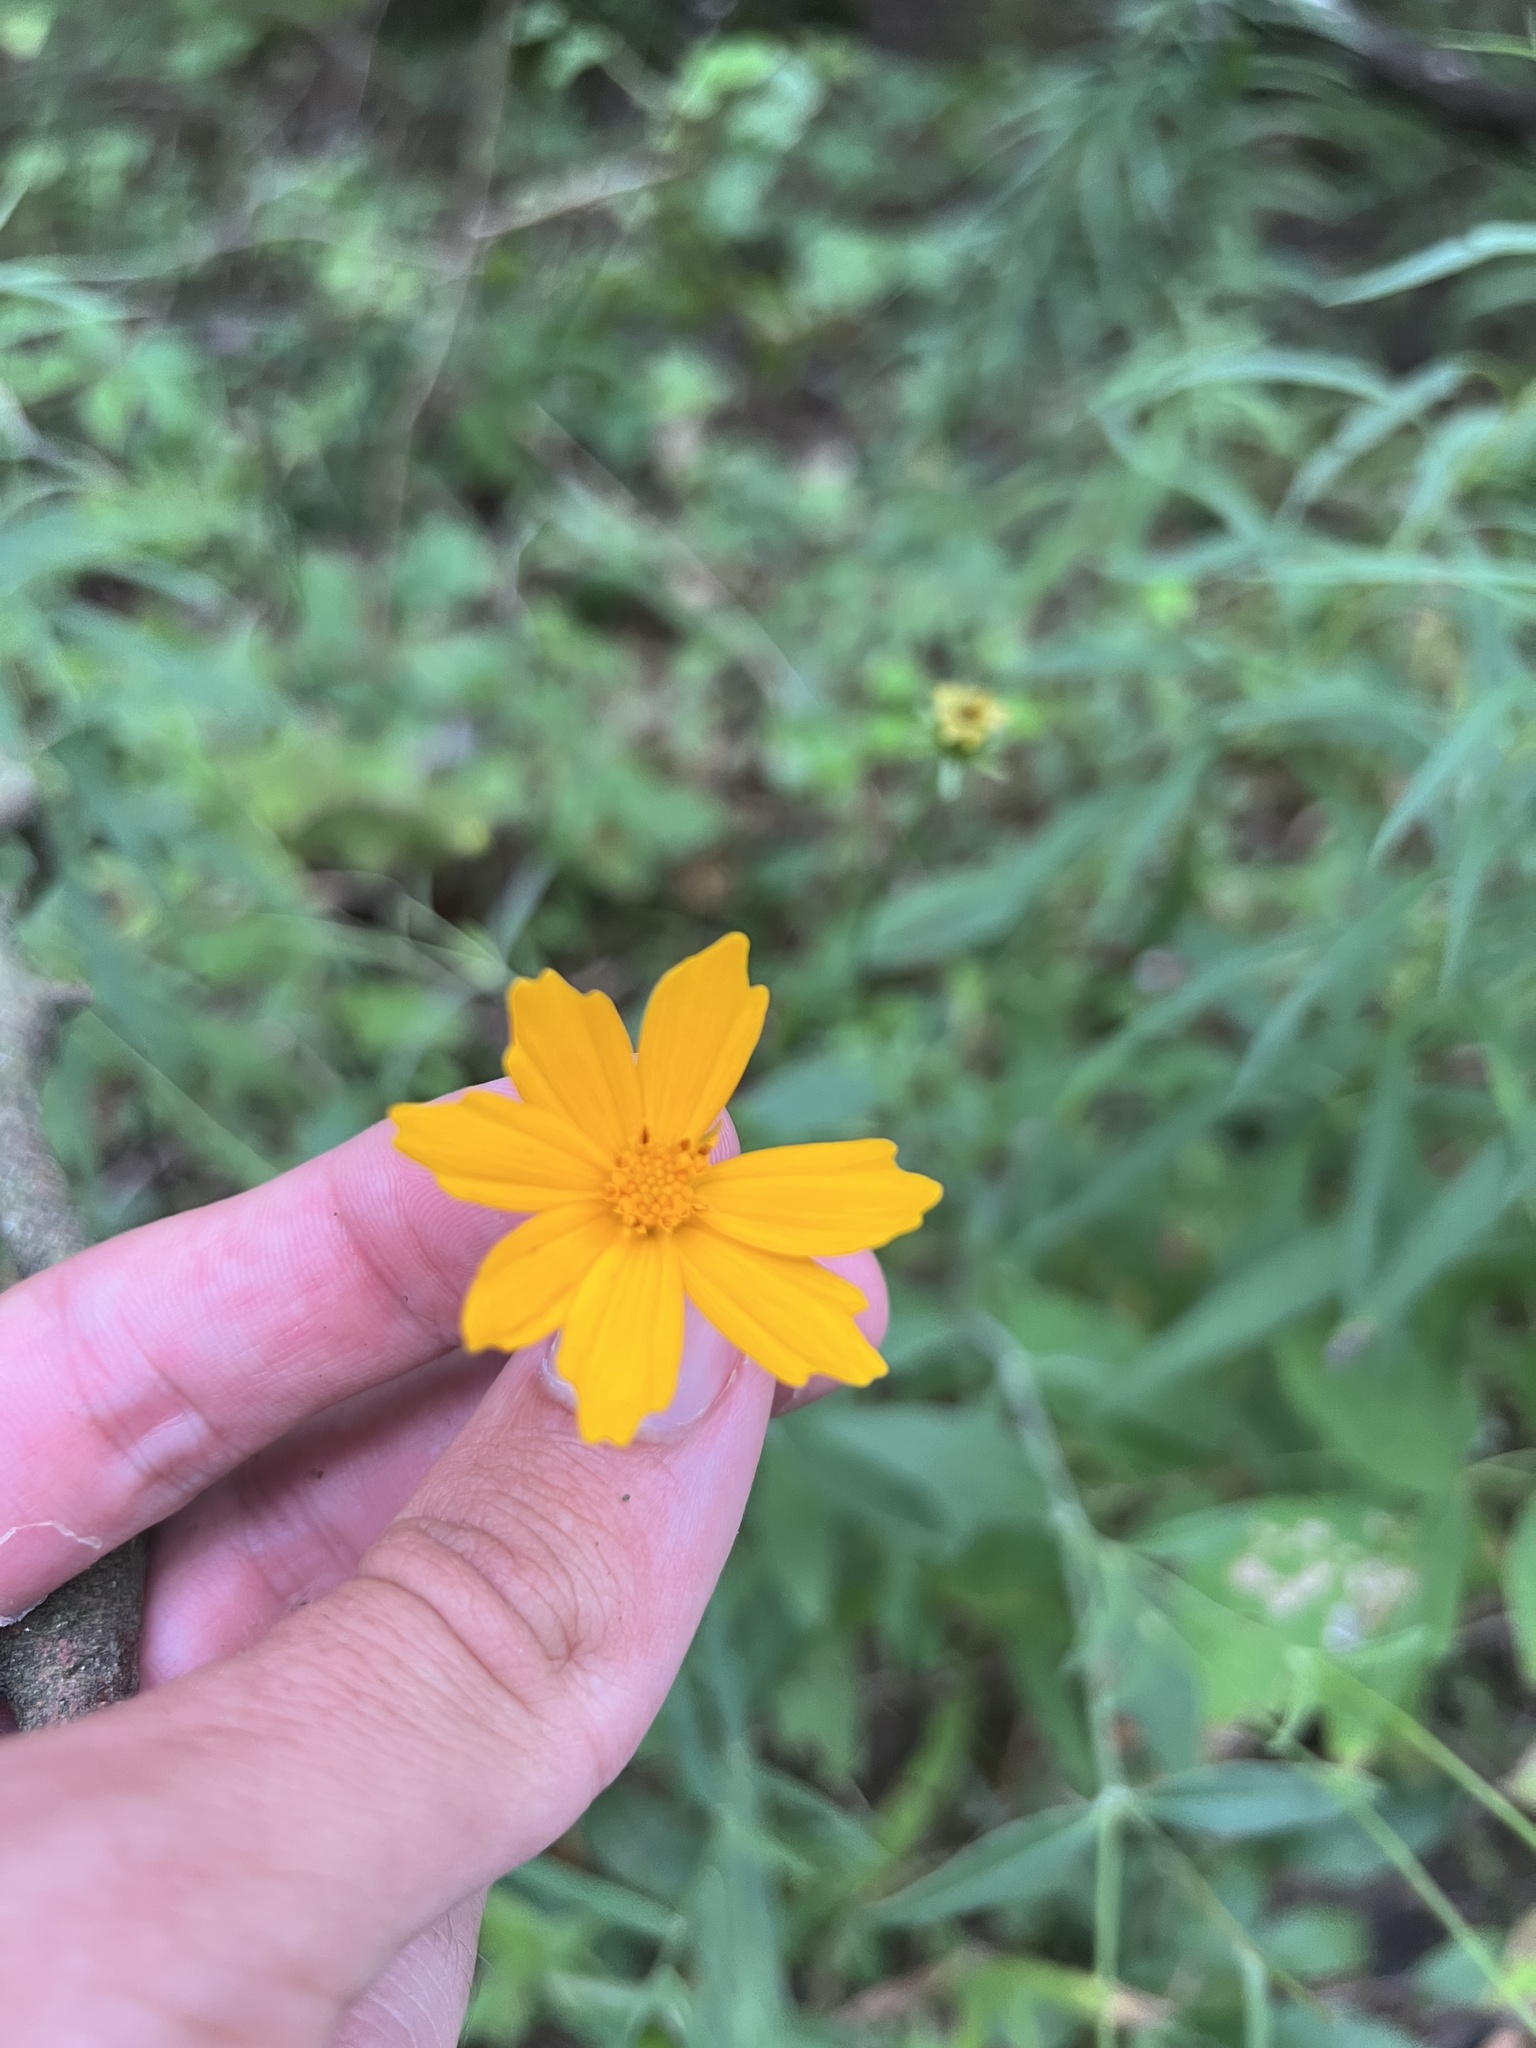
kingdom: Plantae
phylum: Tracheophyta
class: Magnoliopsida
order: Asterales
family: Asteraceae
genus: Coreopsis
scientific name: Coreopsis pubescens
